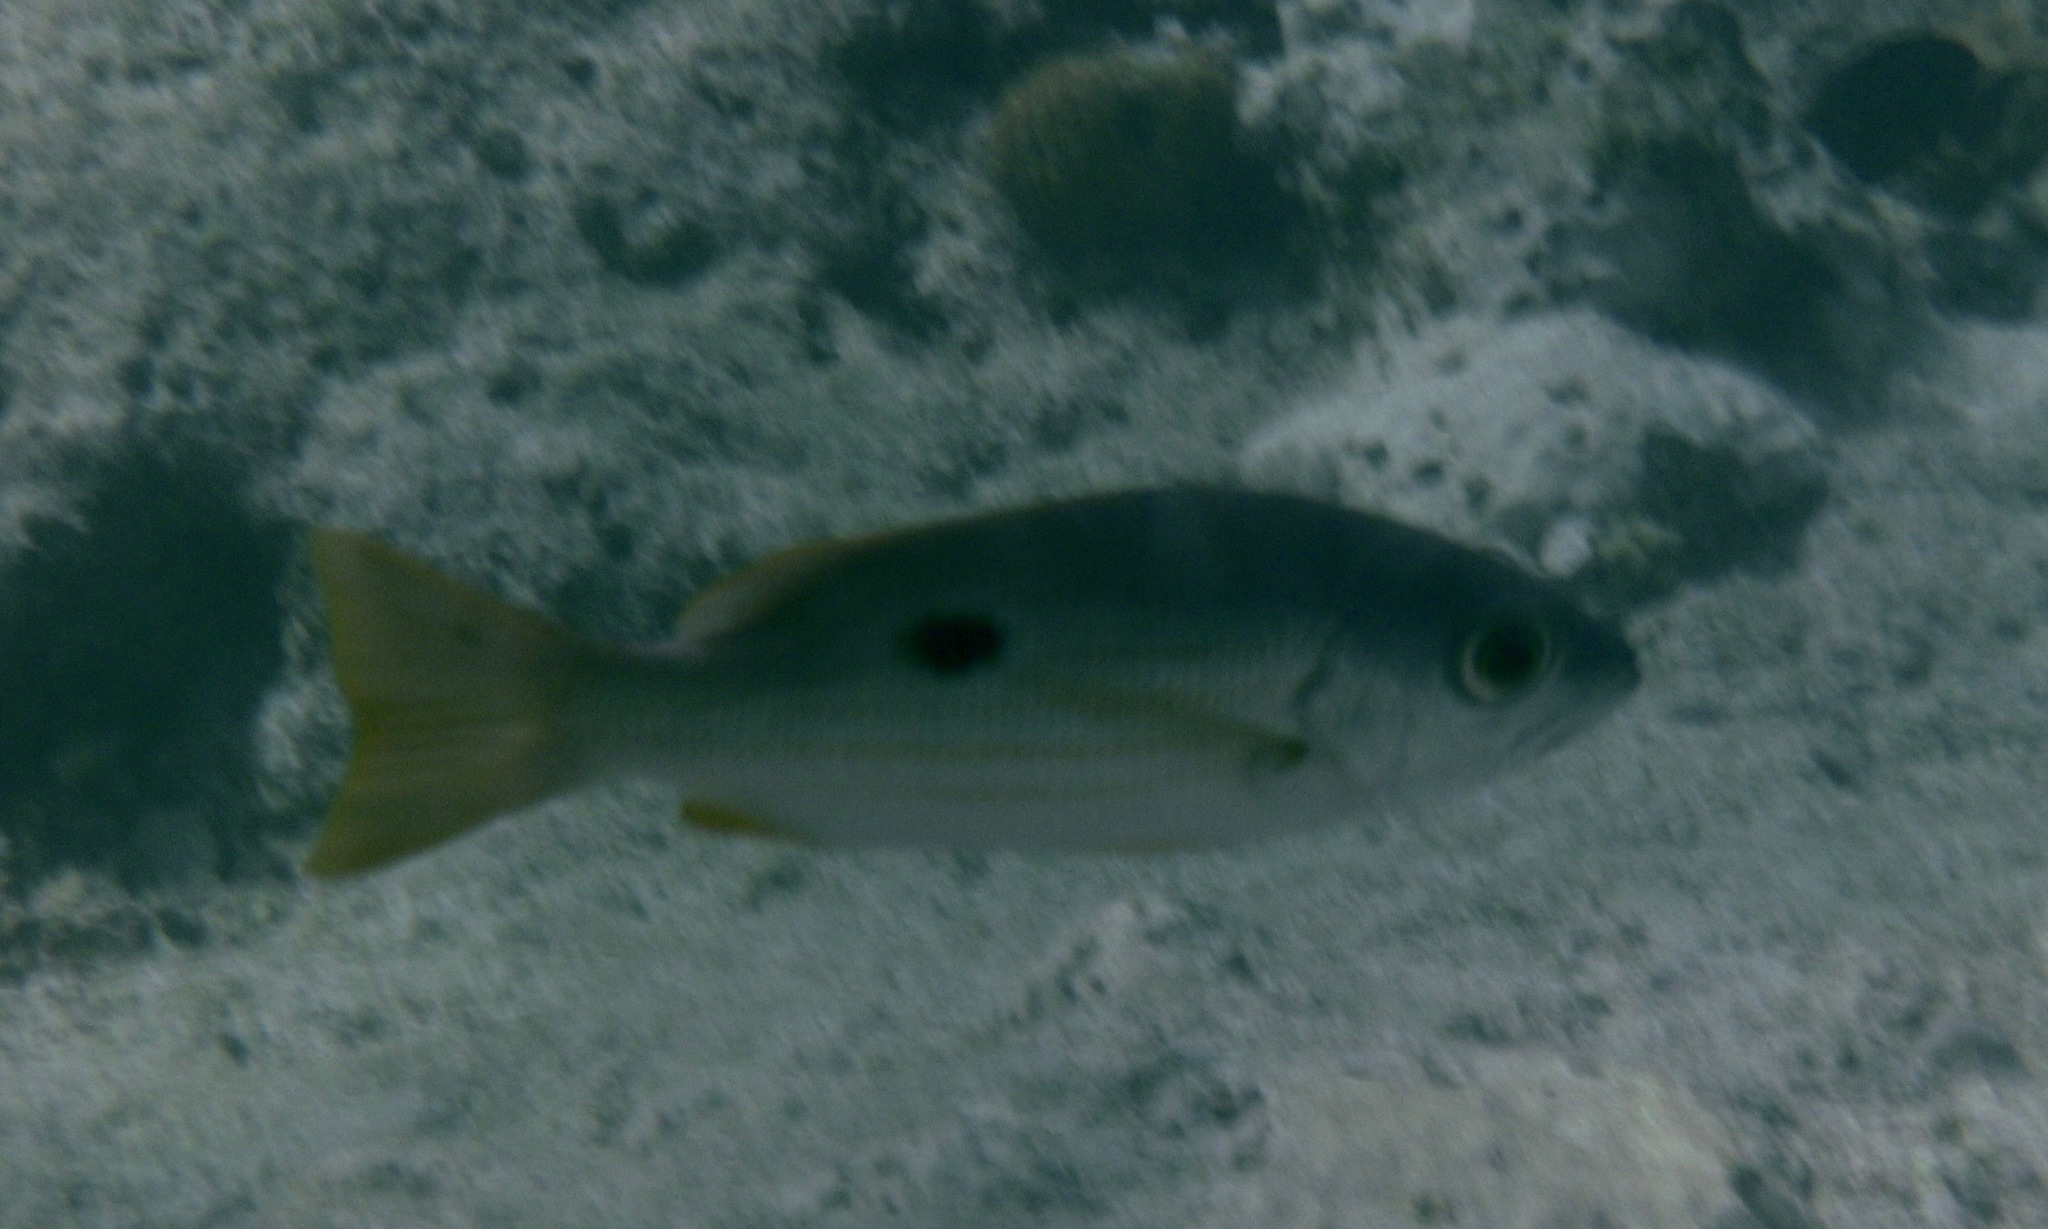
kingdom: Animalia
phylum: Chordata
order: Perciformes
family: Lutjanidae
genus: Lutjanus
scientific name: Lutjanus ehrenbergii
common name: Blackspot snapper
